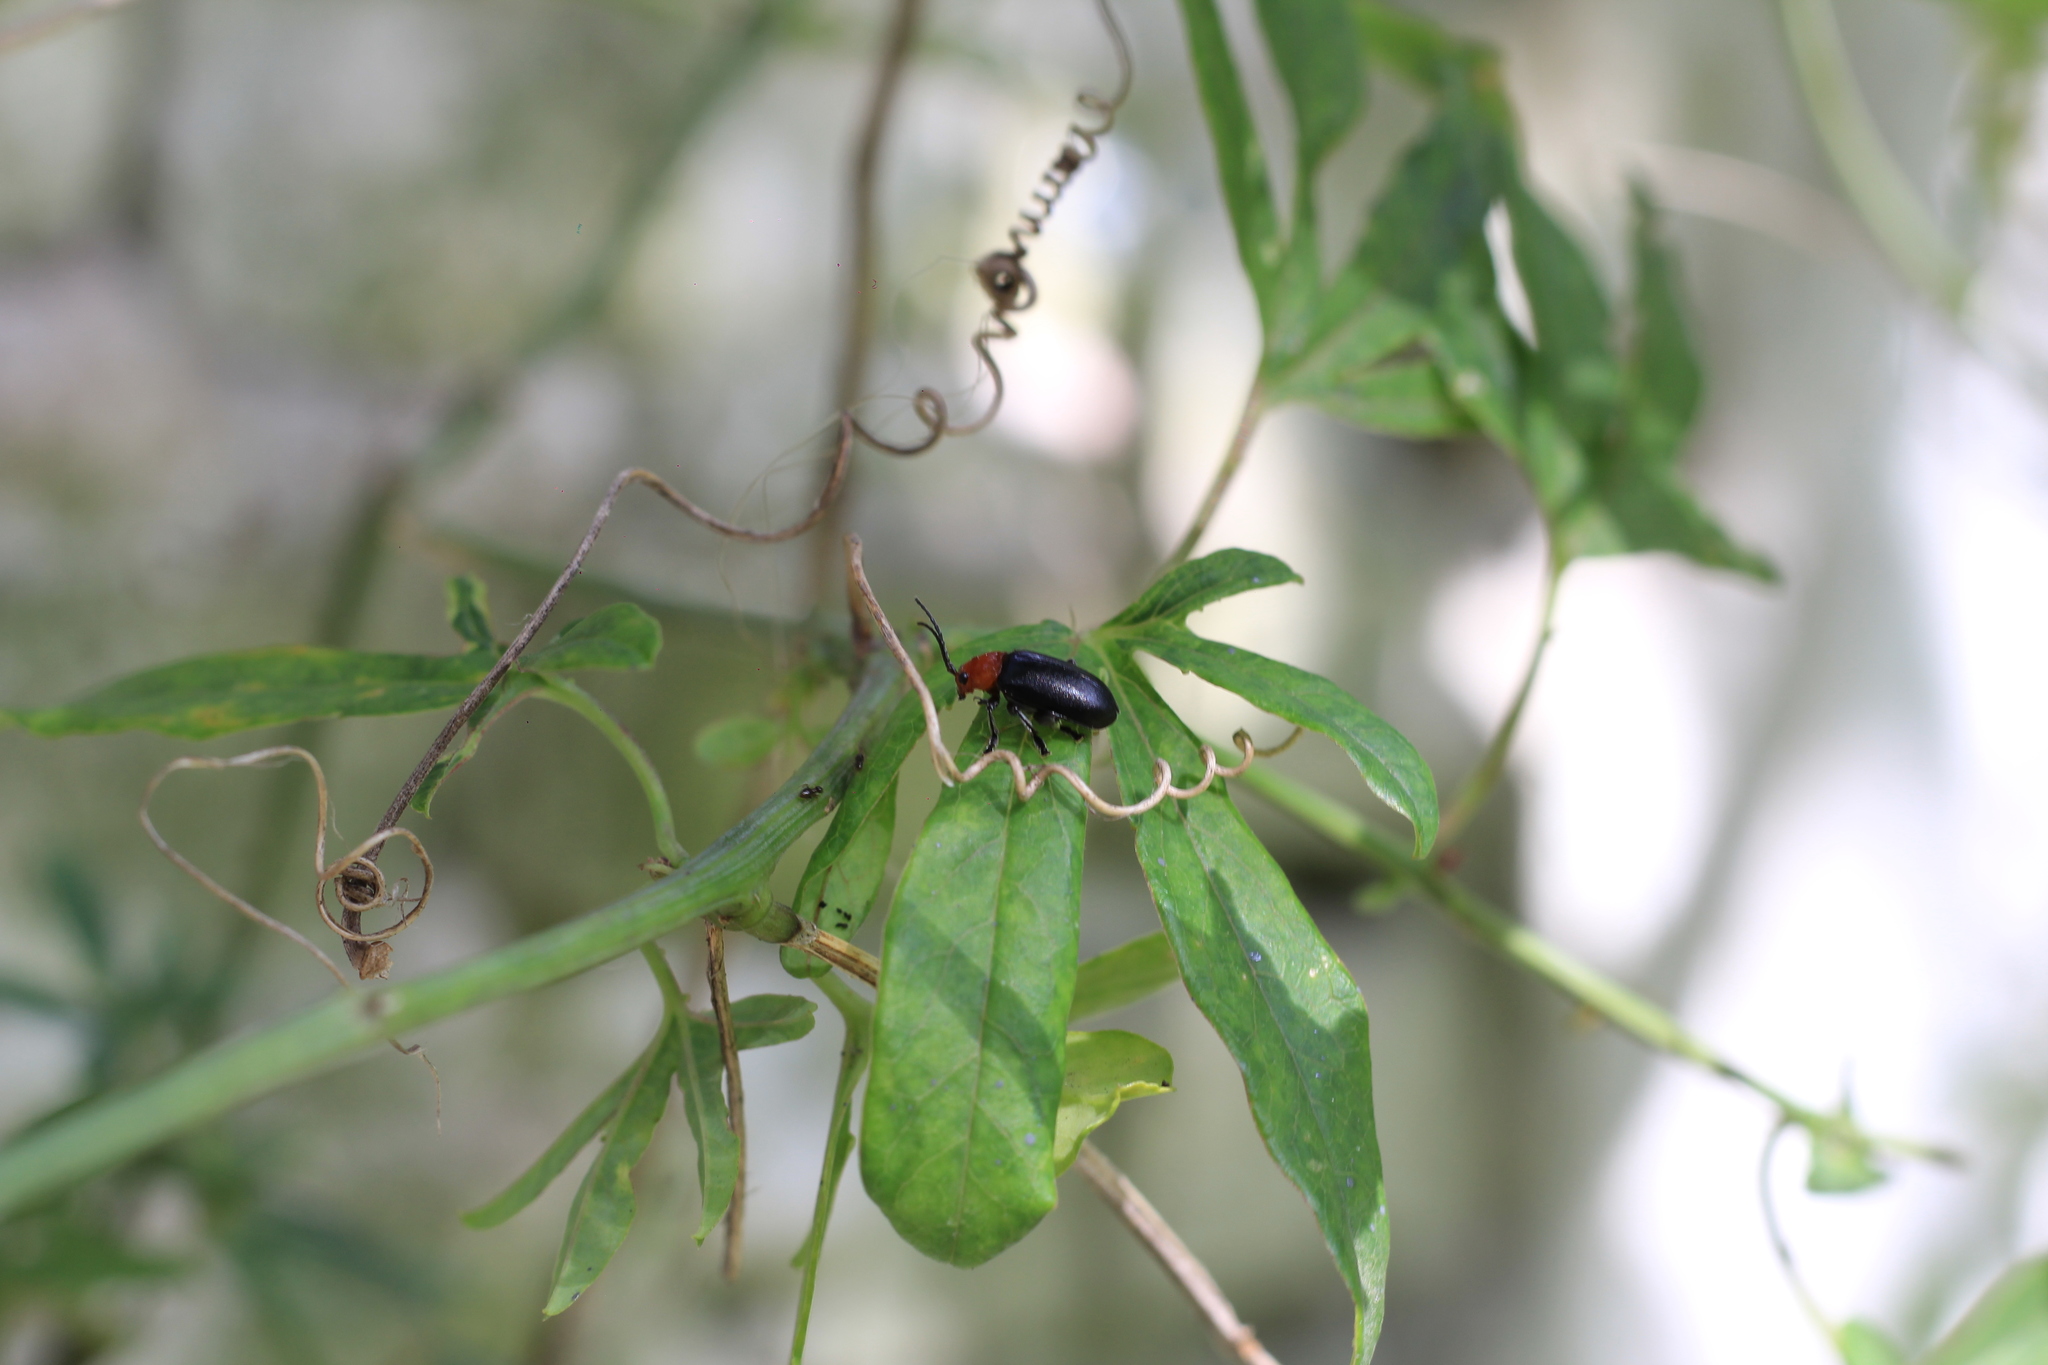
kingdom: Animalia
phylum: Arthropoda
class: Insecta
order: Coleoptera
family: Chrysomelidae
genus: Cacoscelis
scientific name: Cacoscelis
